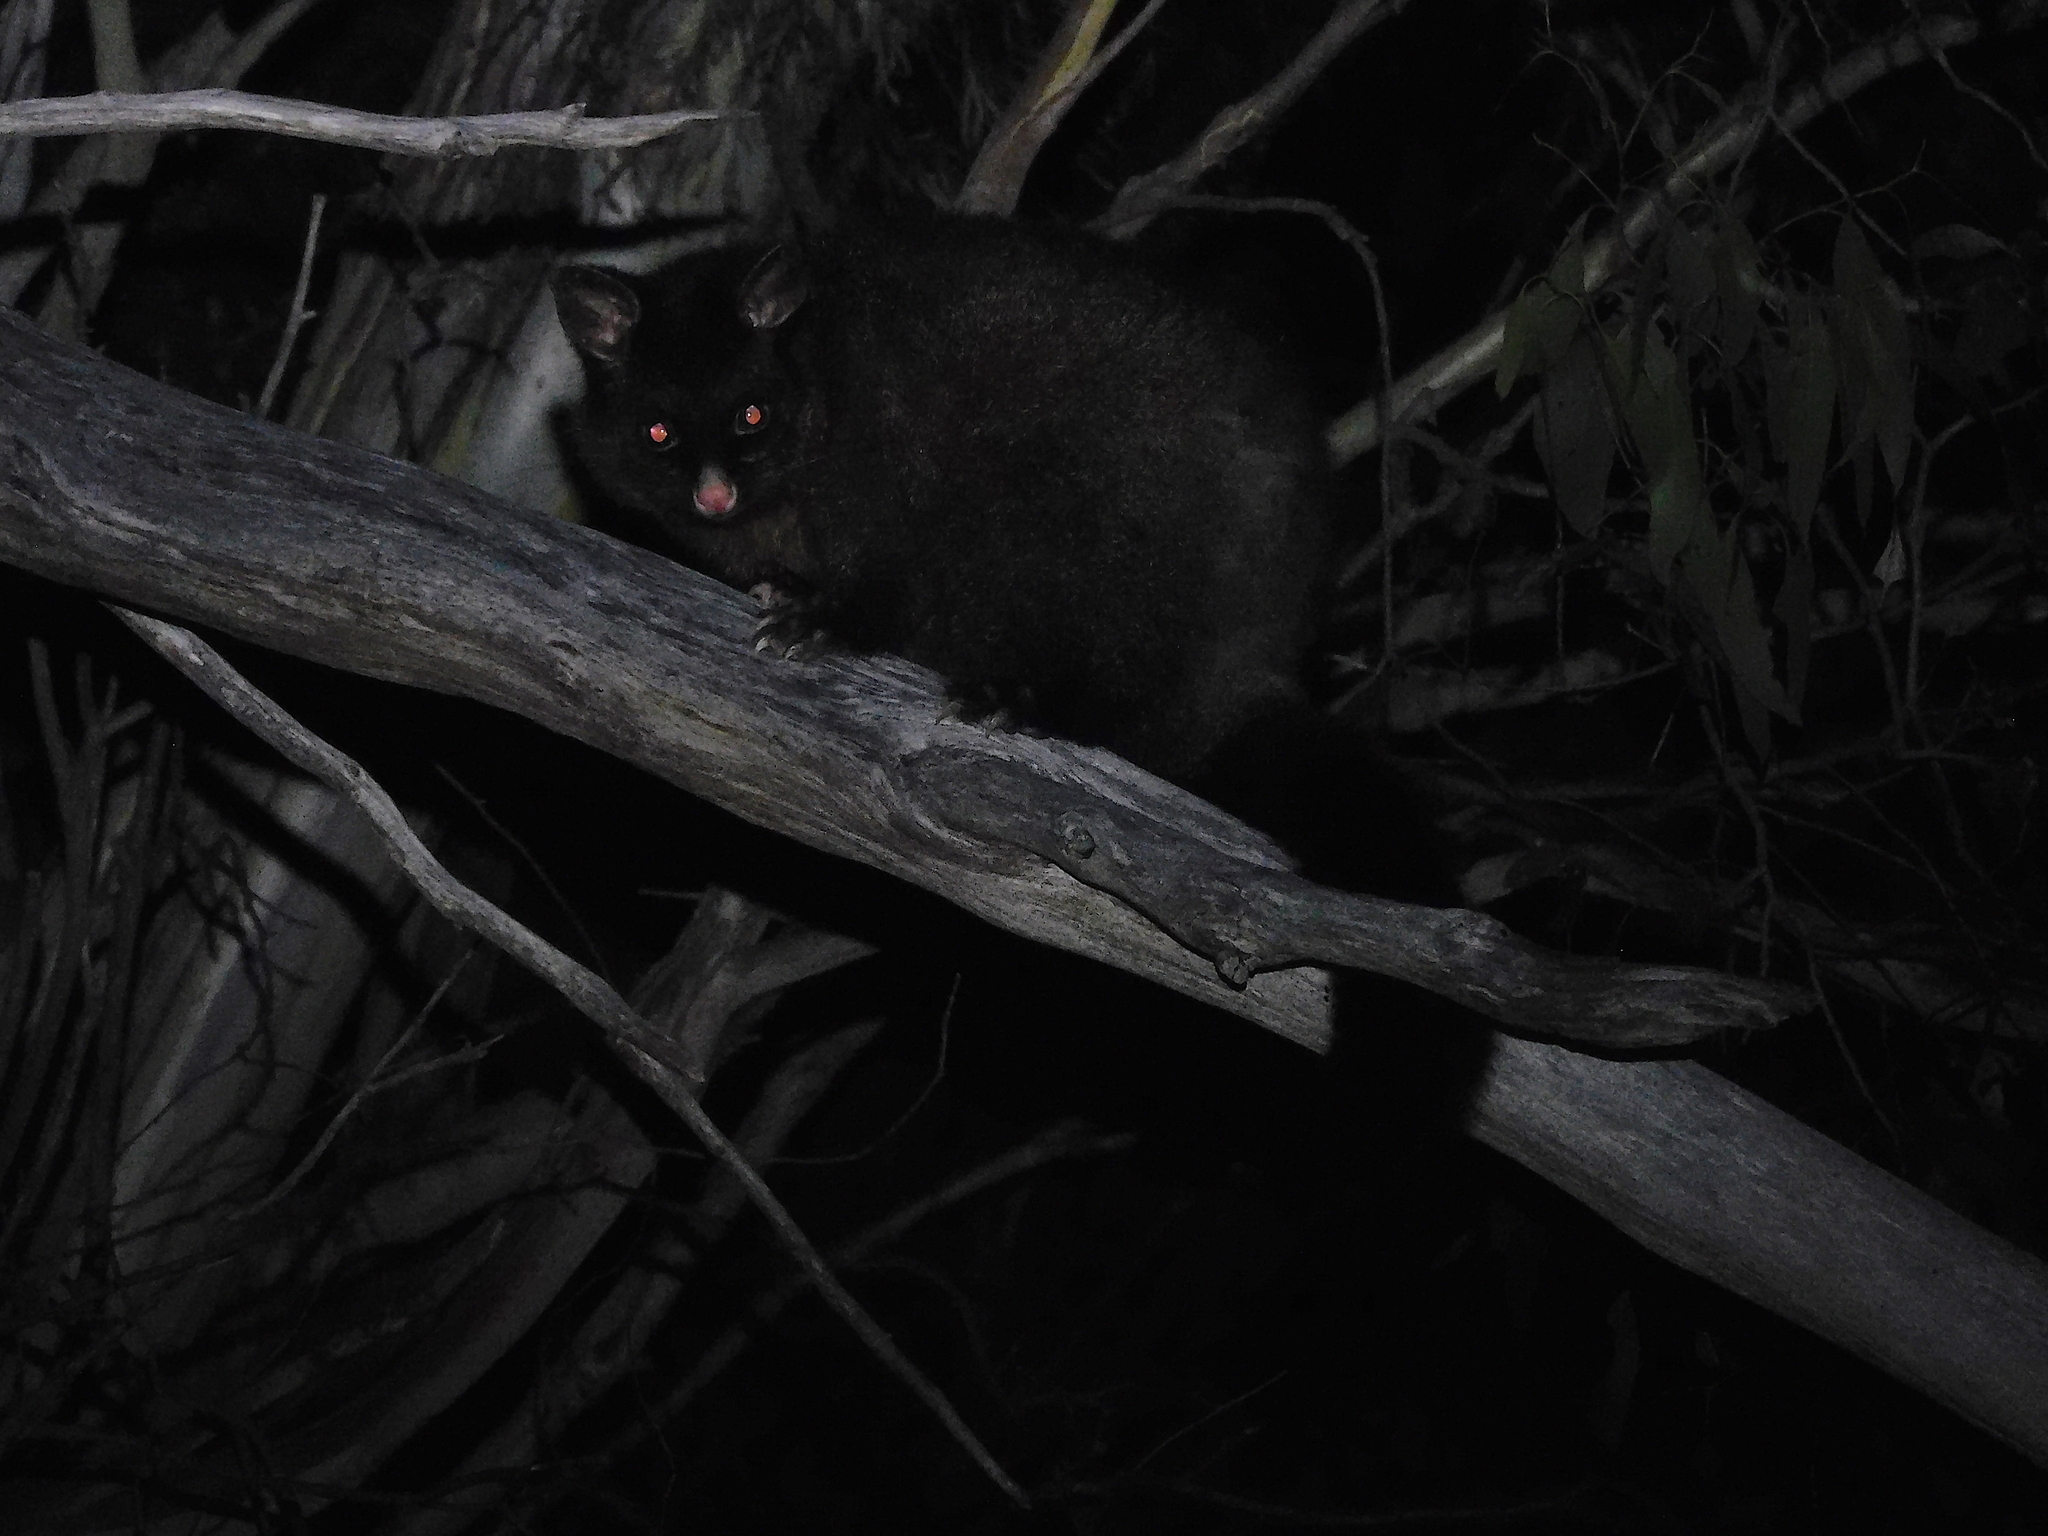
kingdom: Animalia
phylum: Chordata
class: Mammalia
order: Diprotodontia
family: Phalangeridae
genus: Trichosurus
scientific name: Trichosurus vulpecula
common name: Common brushtail
